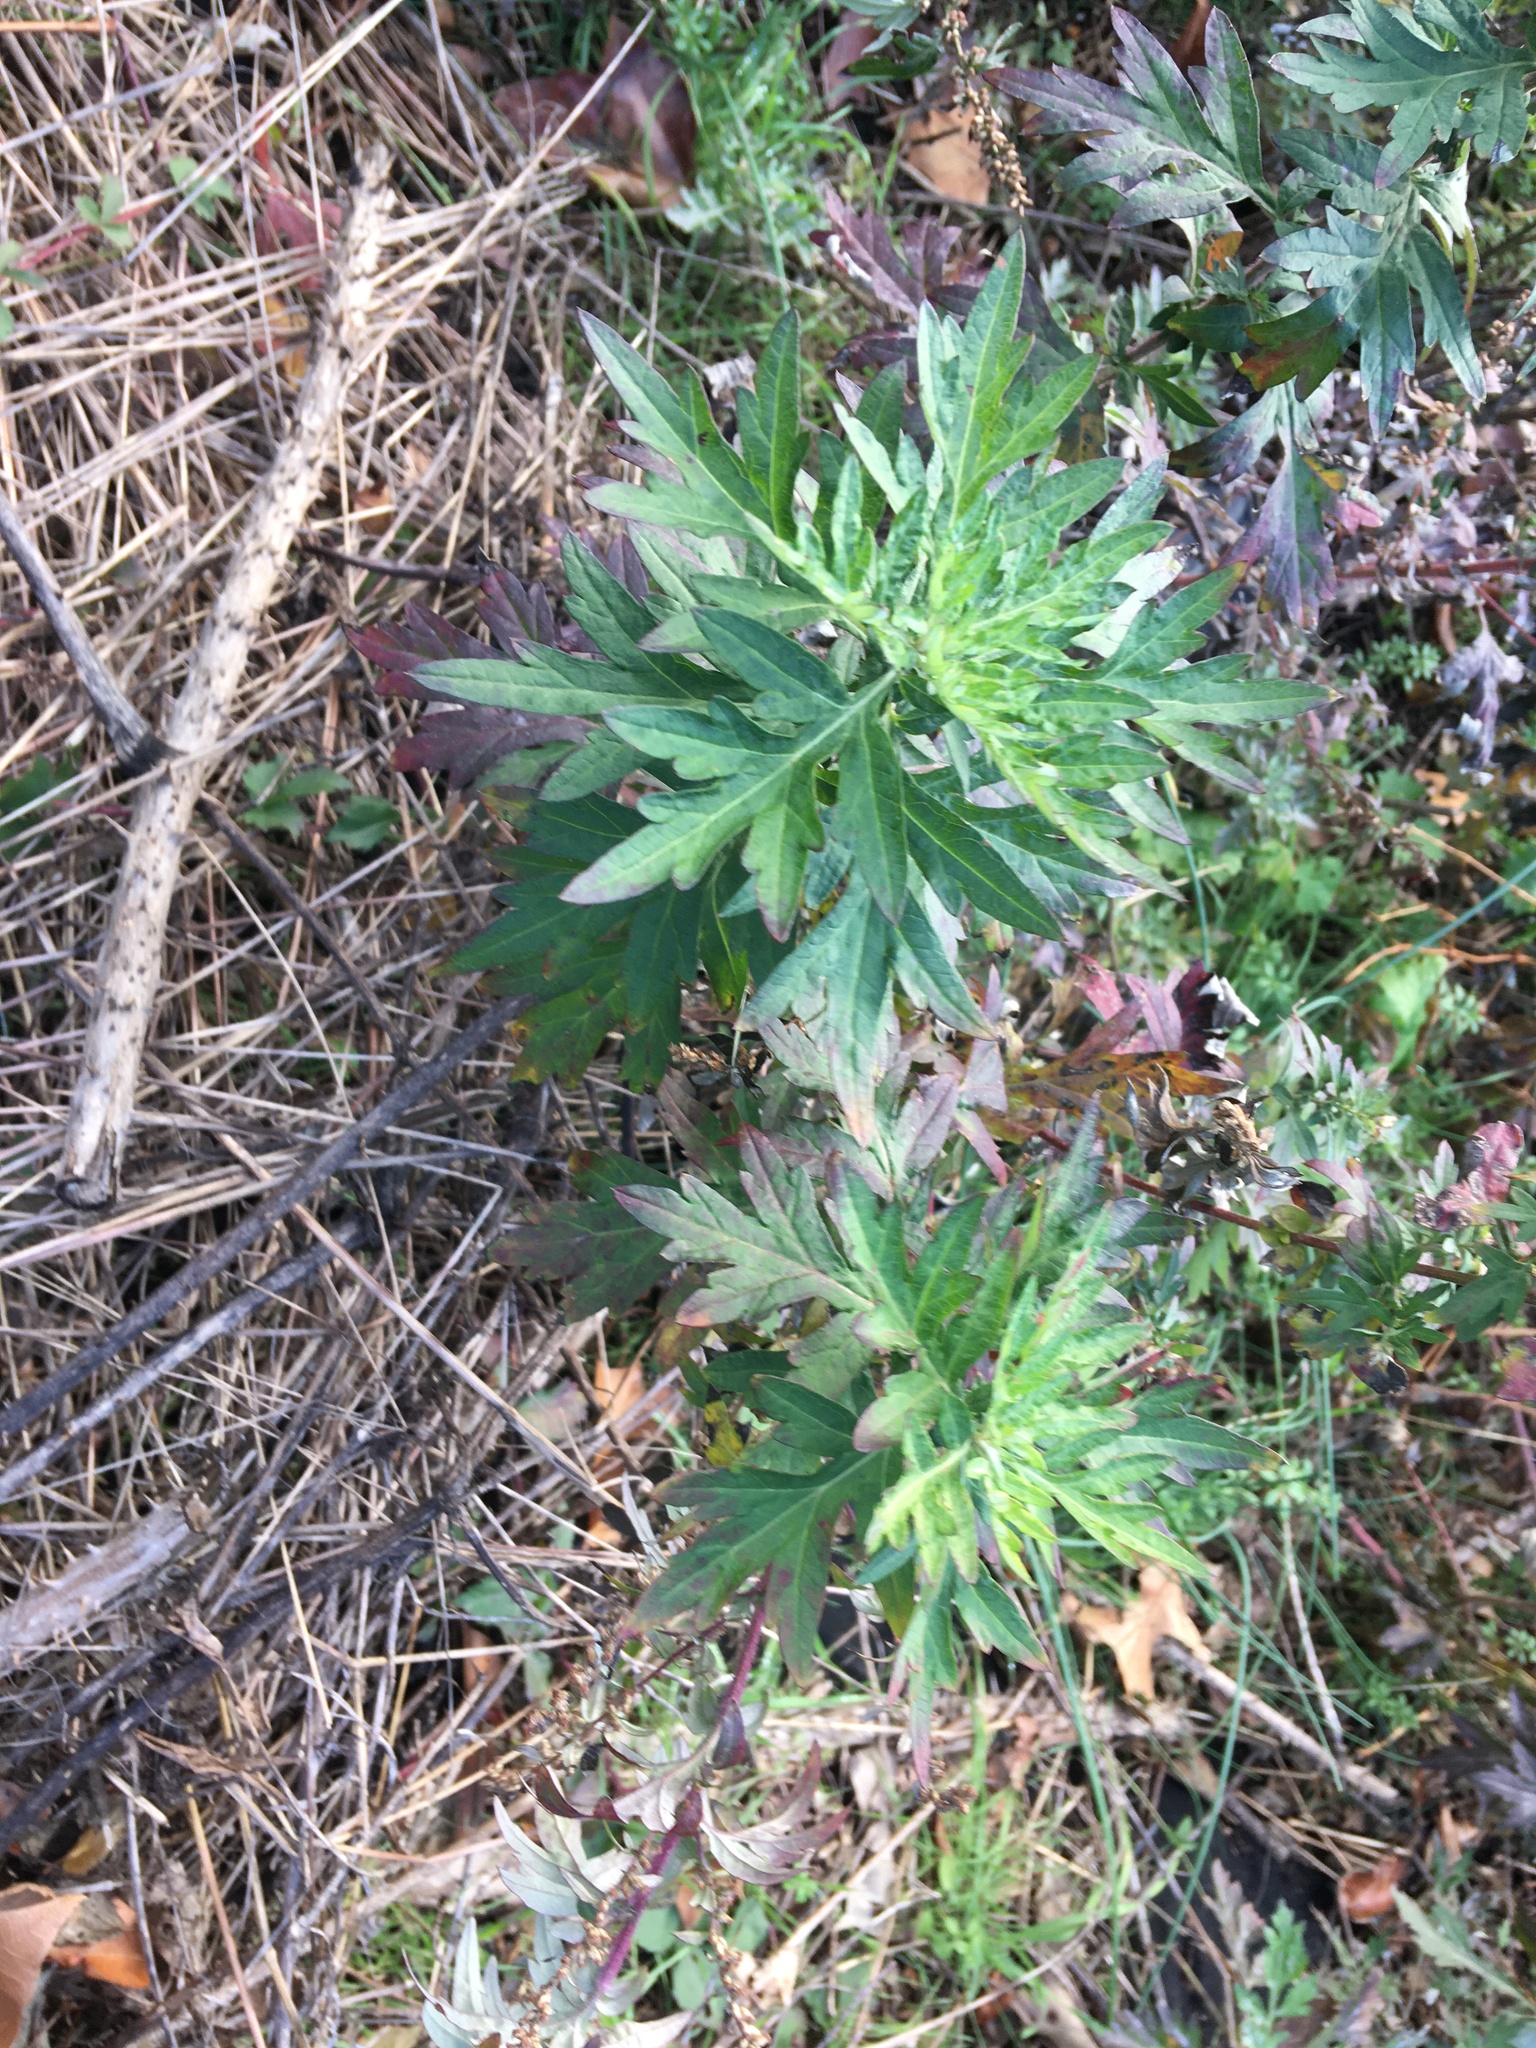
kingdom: Plantae
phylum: Tracheophyta
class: Magnoliopsida
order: Asterales
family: Asteraceae
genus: Artemisia
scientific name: Artemisia vulgaris
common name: Mugwort
